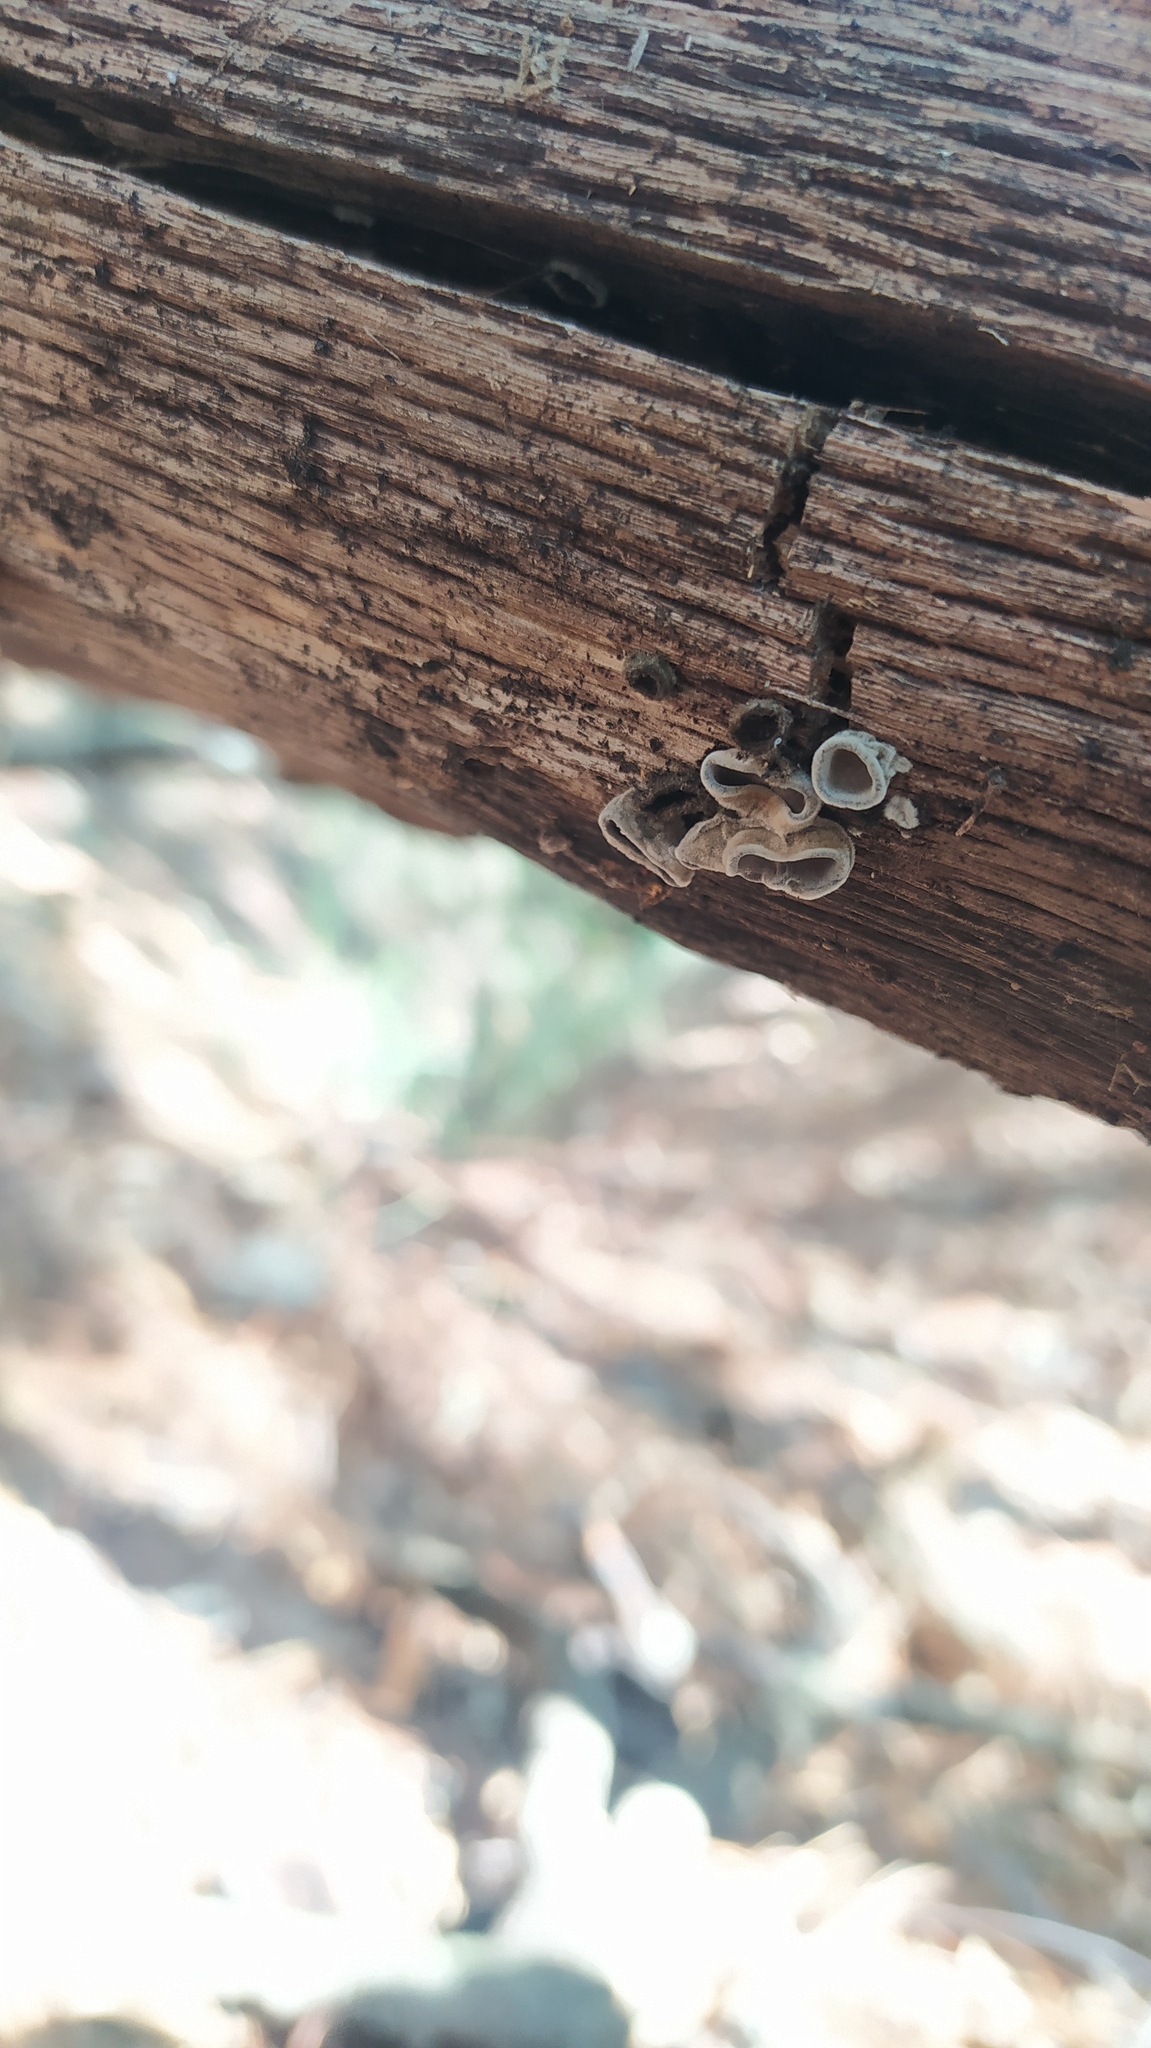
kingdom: Fungi
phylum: Basidiomycota
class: Agaricomycetes
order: Auriculariales
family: Auriculariaceae
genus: Auricularia
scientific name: Auricularia nigricans
